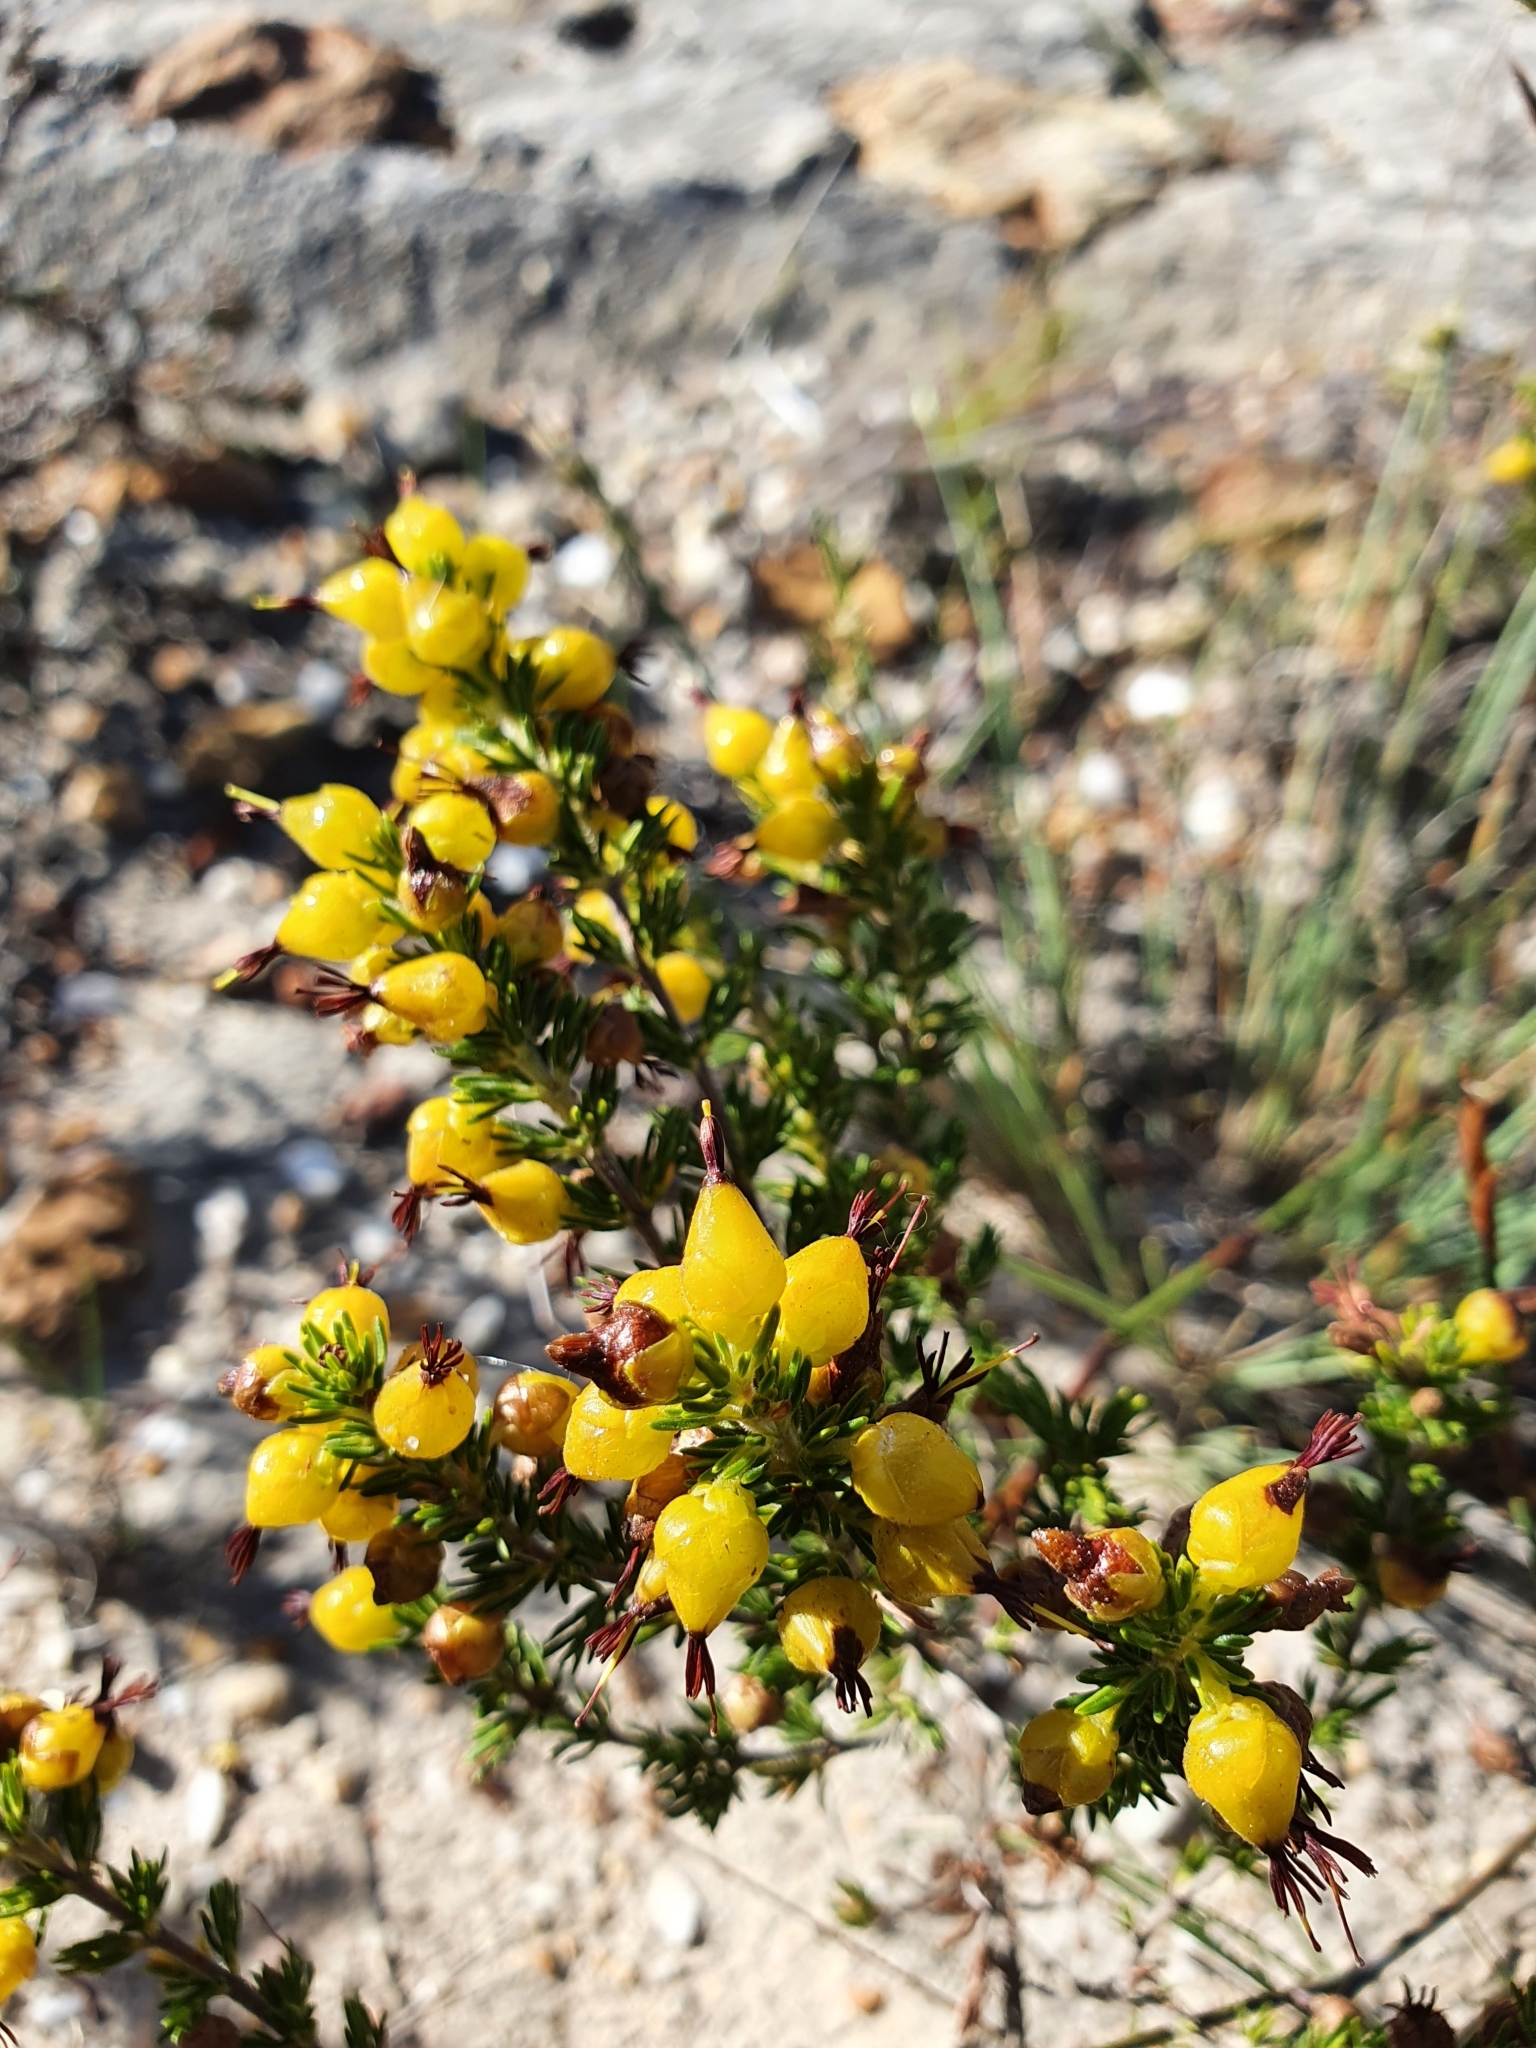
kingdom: Plantae
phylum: Tracheophyta
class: Magnoliopsida
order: Ericales
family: Ericaceae
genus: Erica
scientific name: Erica melastoma
